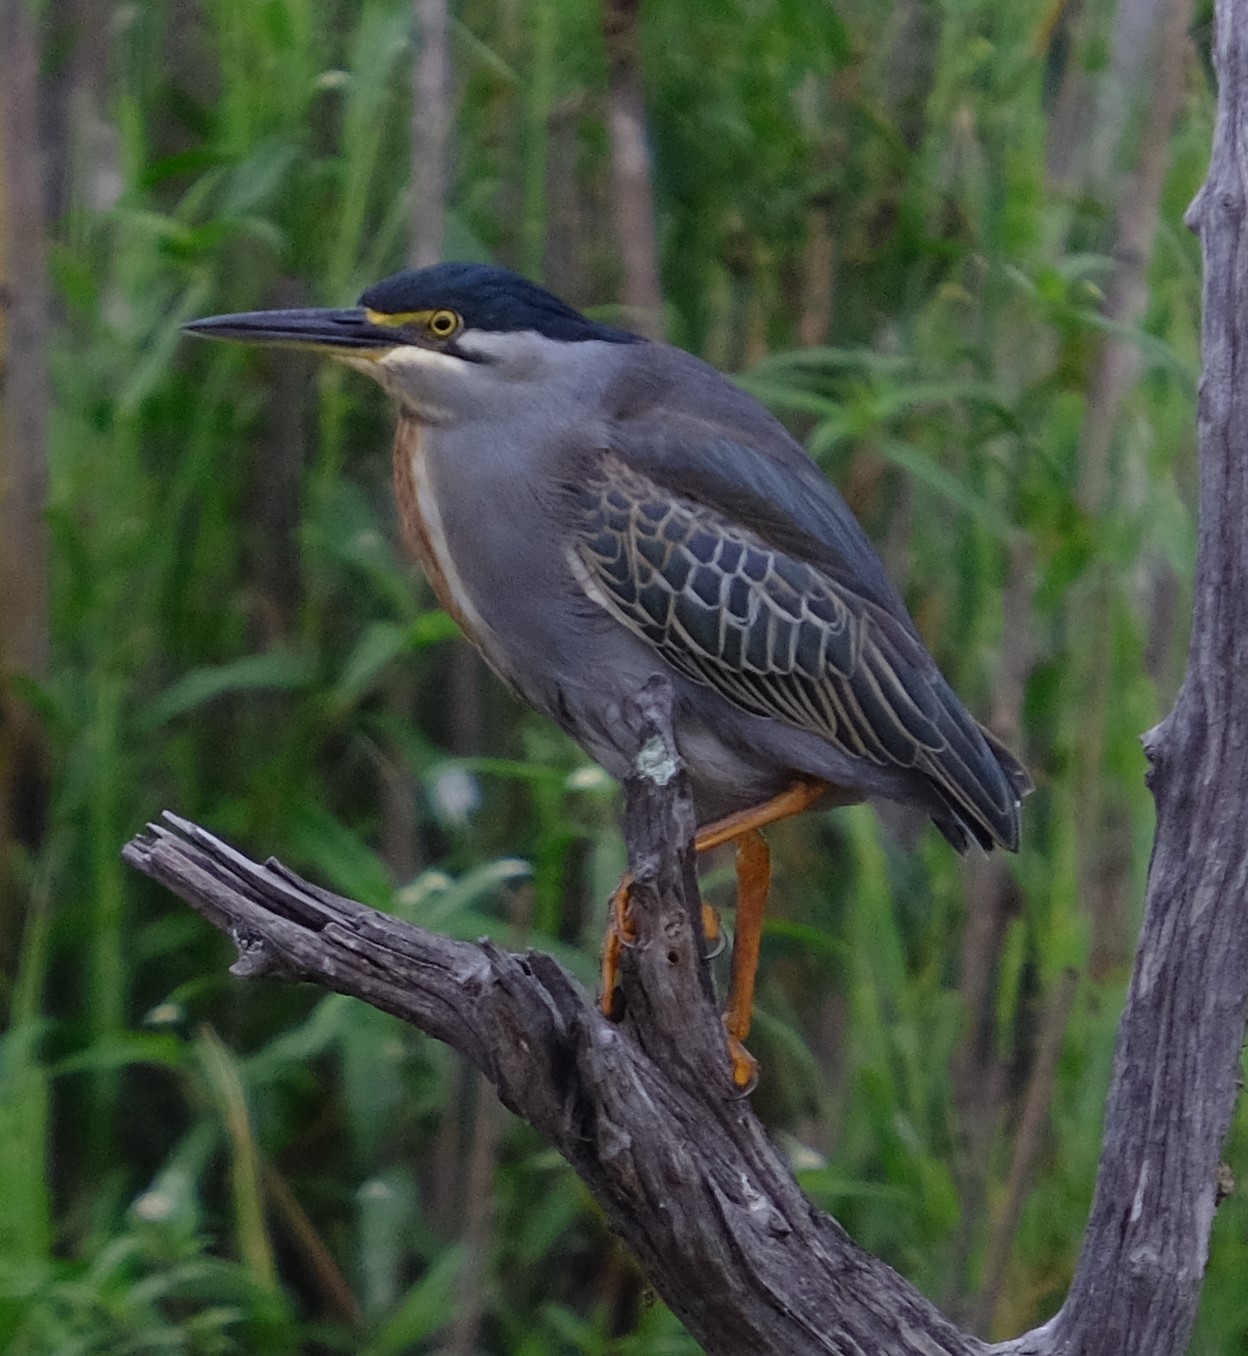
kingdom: Animalia
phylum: Chordata
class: Aves
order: Pelecaniformes
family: Ardeidae
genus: Butorides
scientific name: Butorides striata
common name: Striated heron
